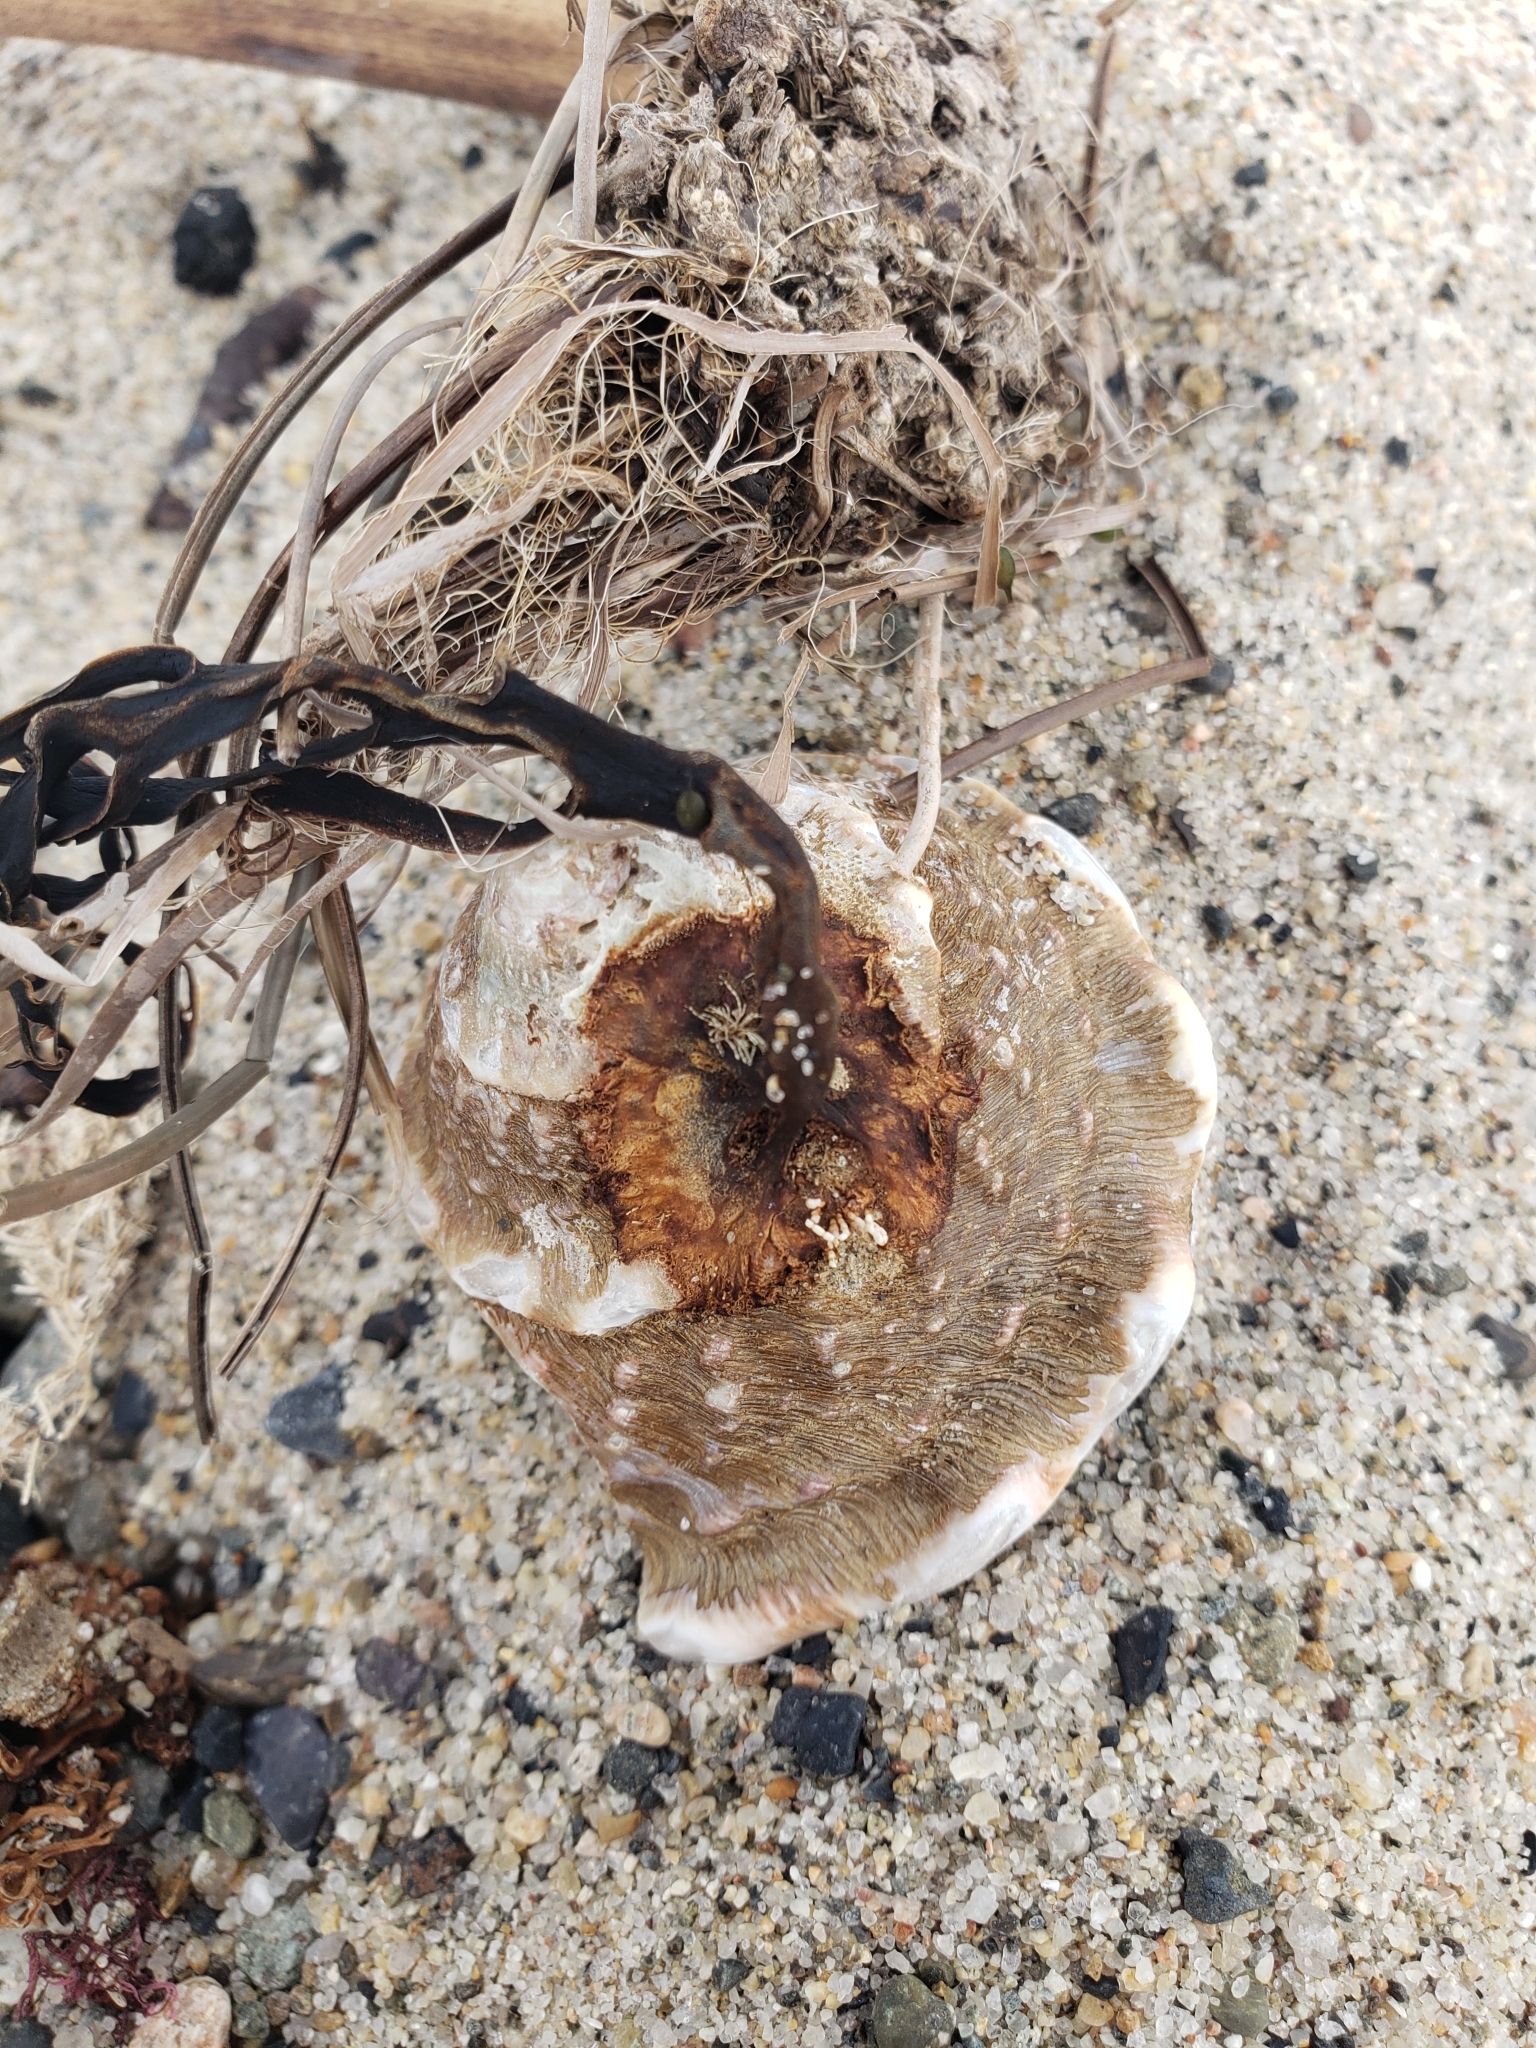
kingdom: Animalia
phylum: Mollusca
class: Gastropoda
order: Trochida
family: Turbinidae
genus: Megastraea
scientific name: Megastraea undosa
